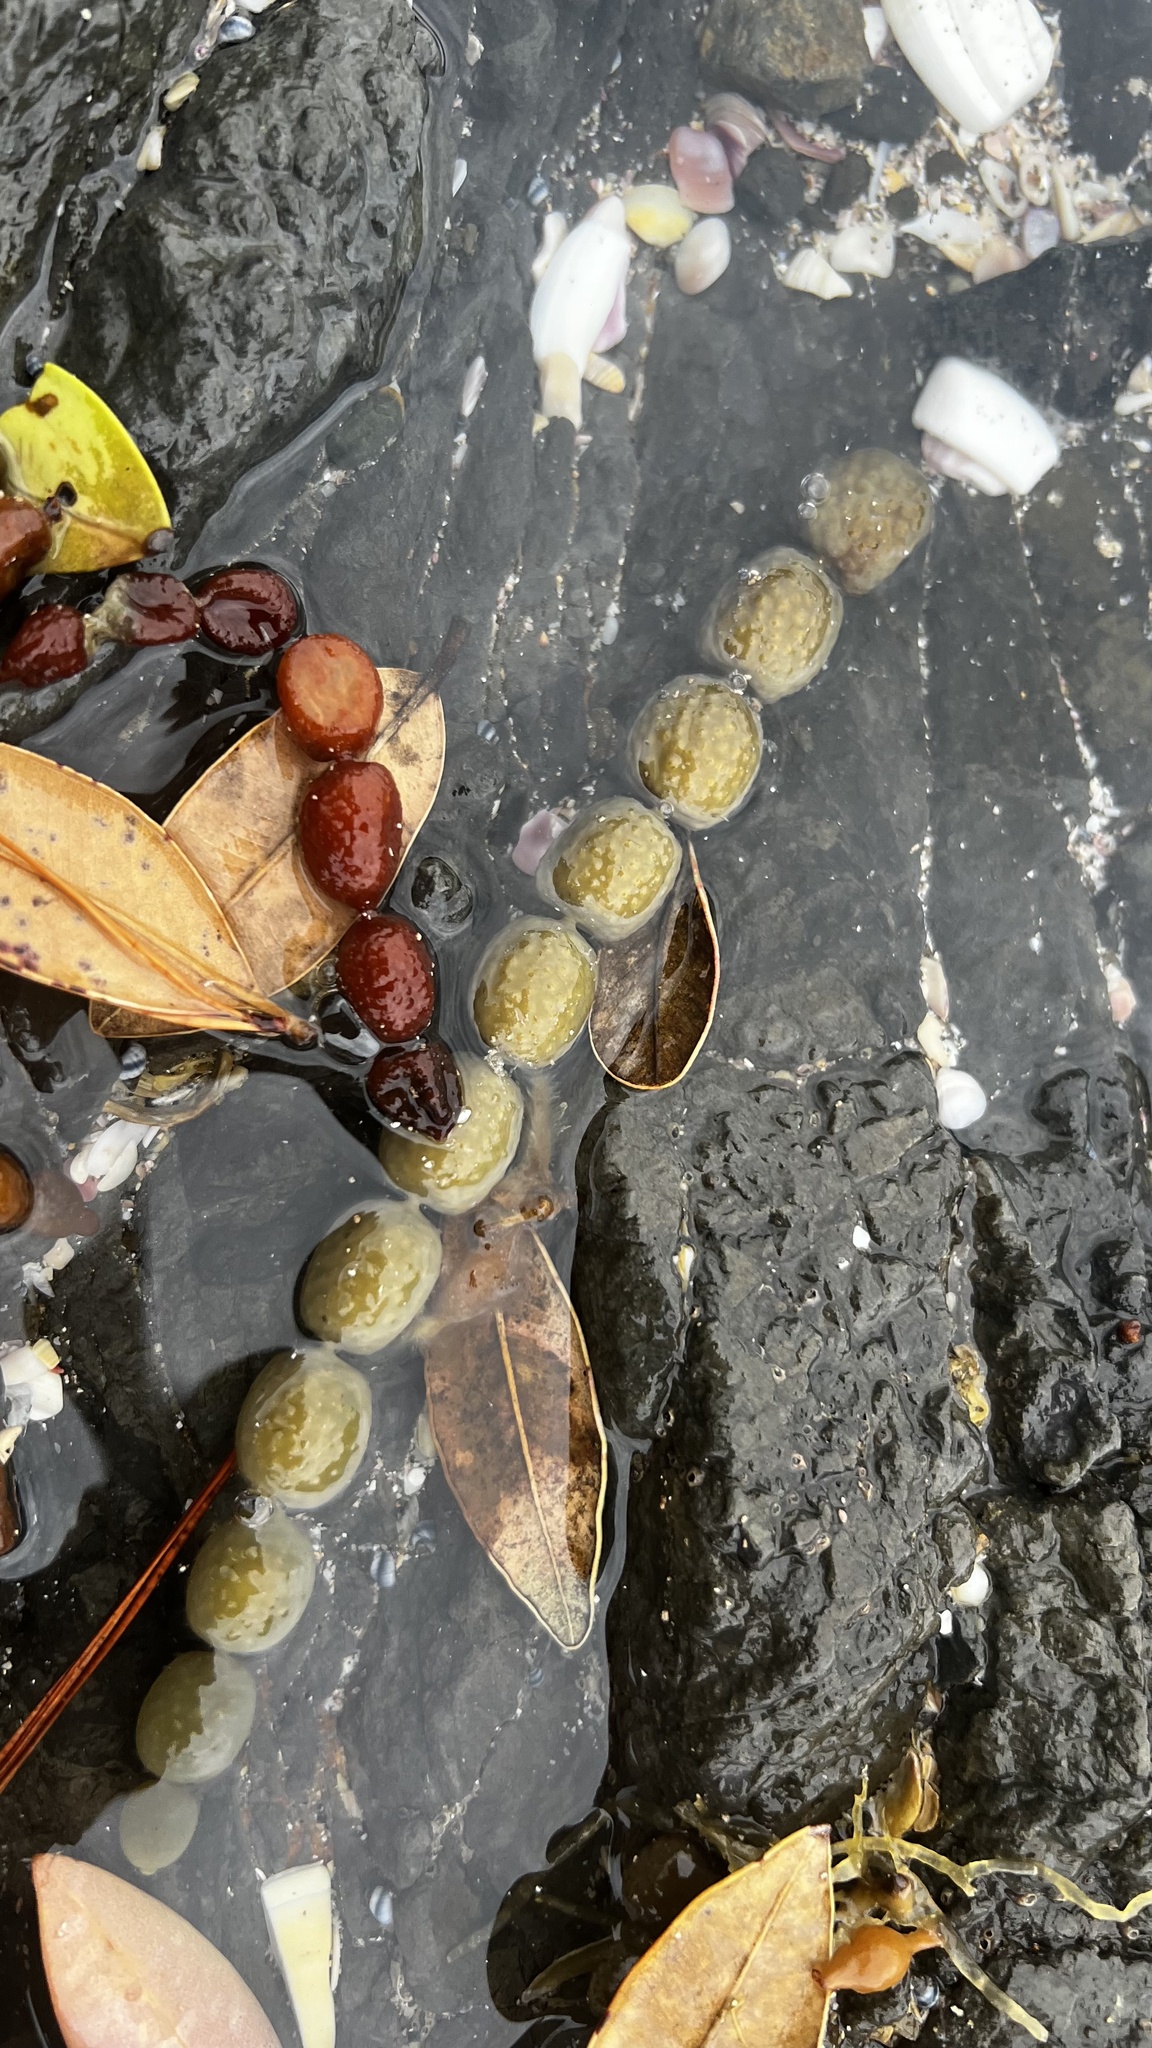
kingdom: Chromista
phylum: Ochrophyta
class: Phaeophyceae
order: Fucales
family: Hormosiraceae
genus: Hormosira
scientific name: Hormosira banksii
